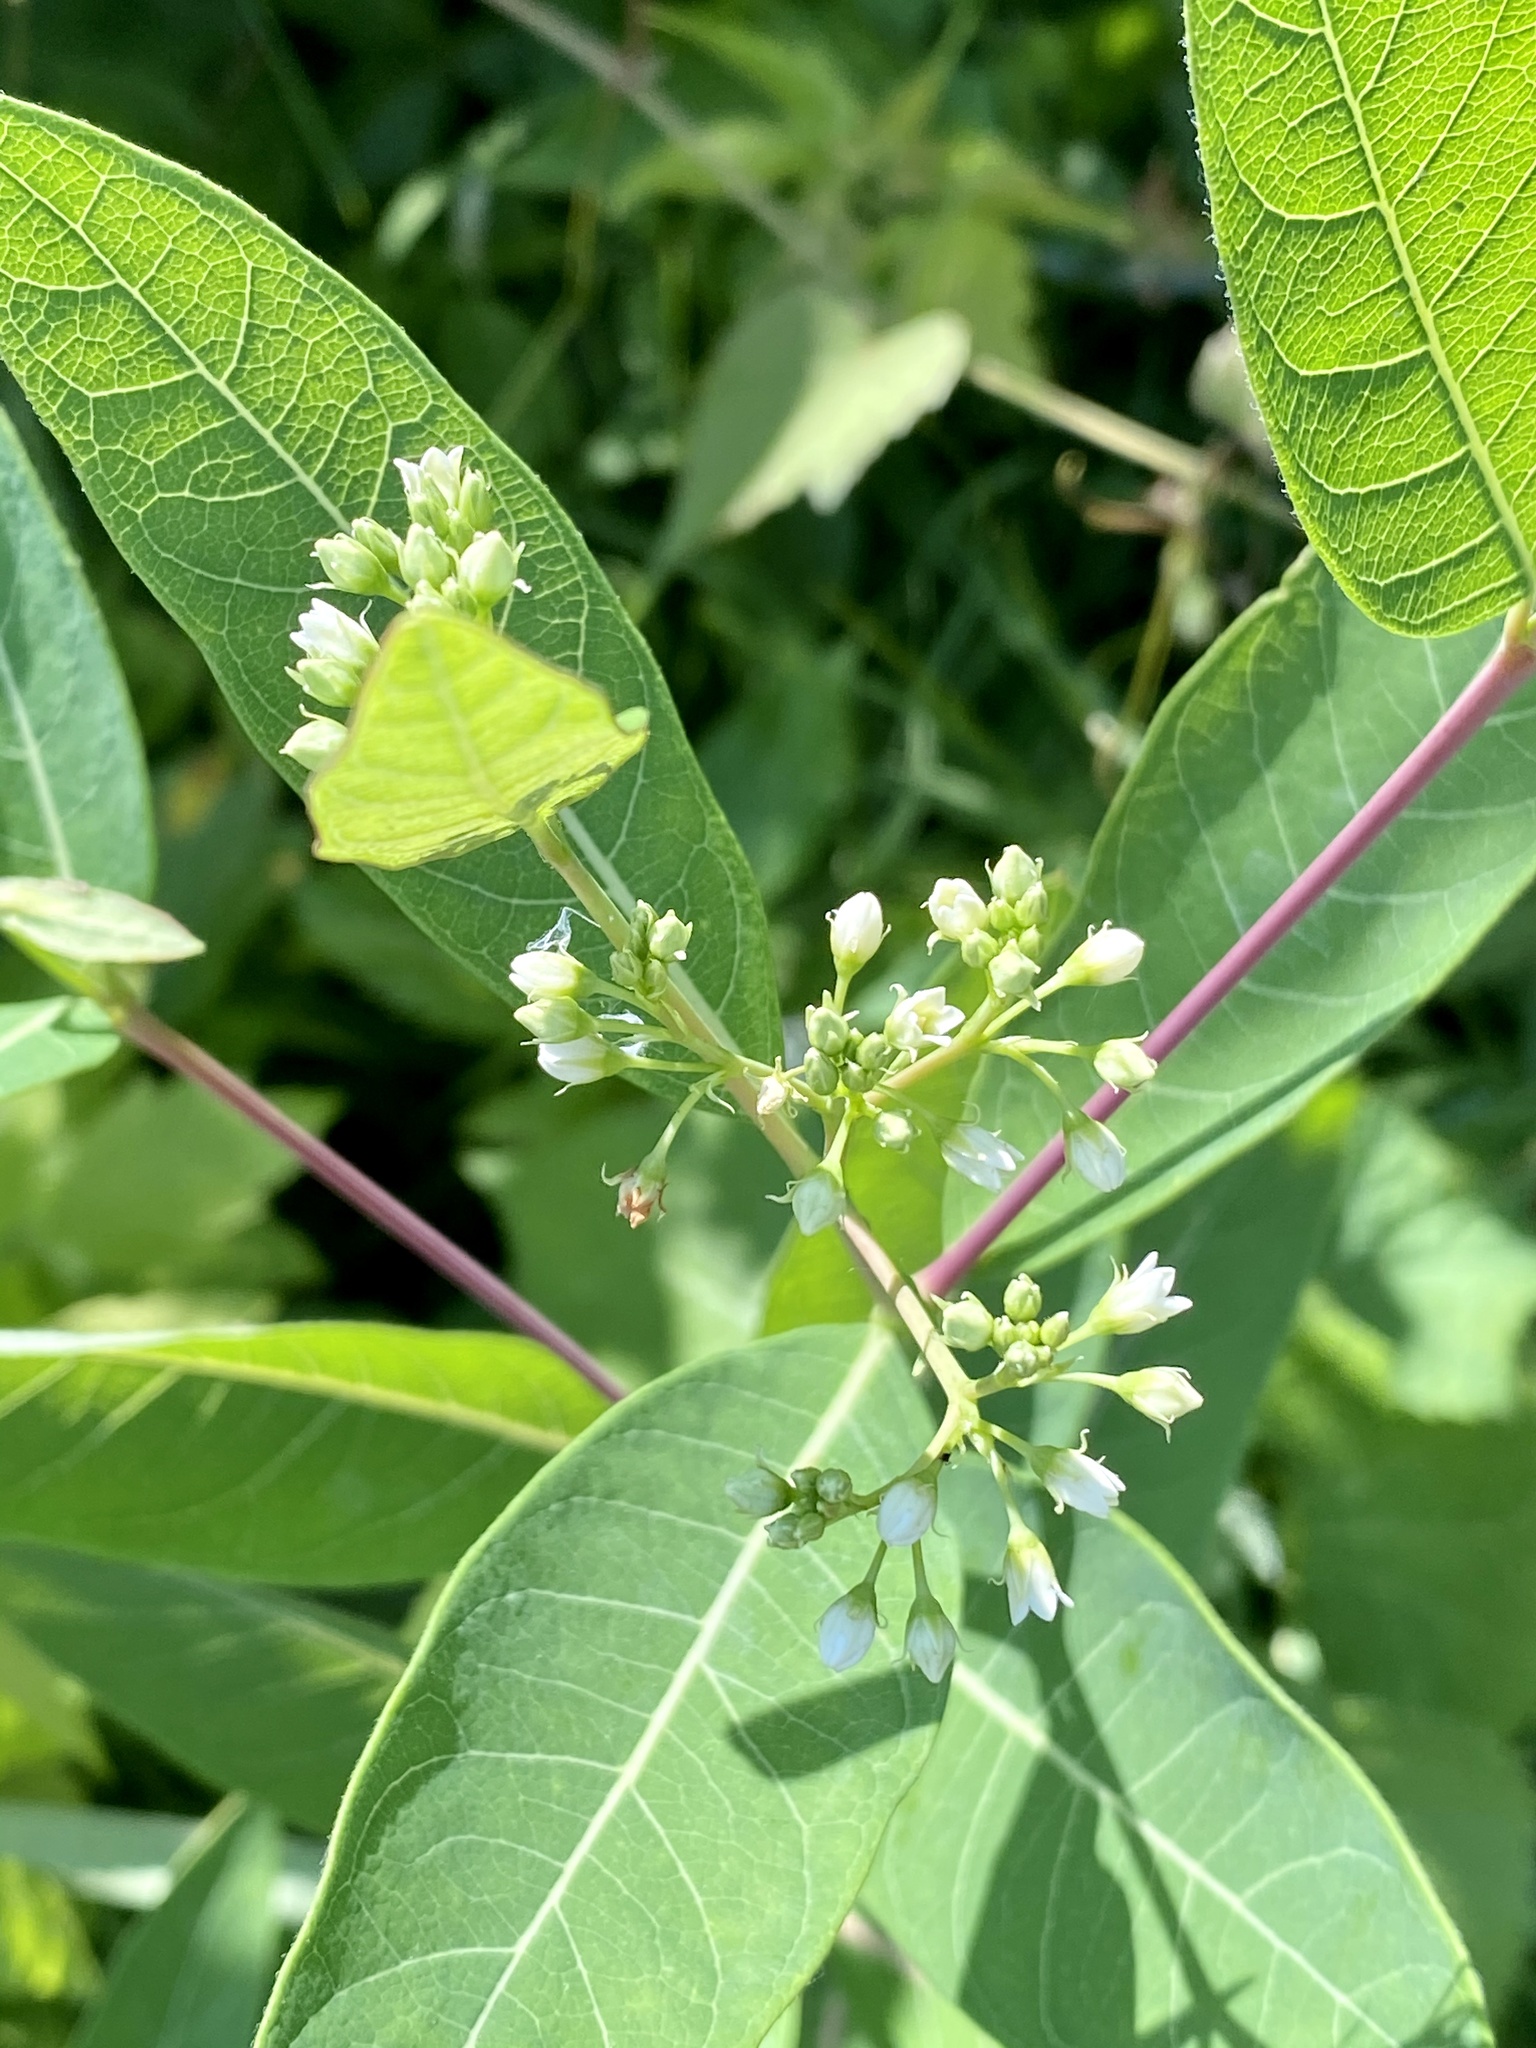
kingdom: Plantae
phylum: Tracheophyta
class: Magnoliopsida
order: Gentianales
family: Apocynaceae
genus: Apocynum
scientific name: Apocynum cannabinum
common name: Hemp dogbane
